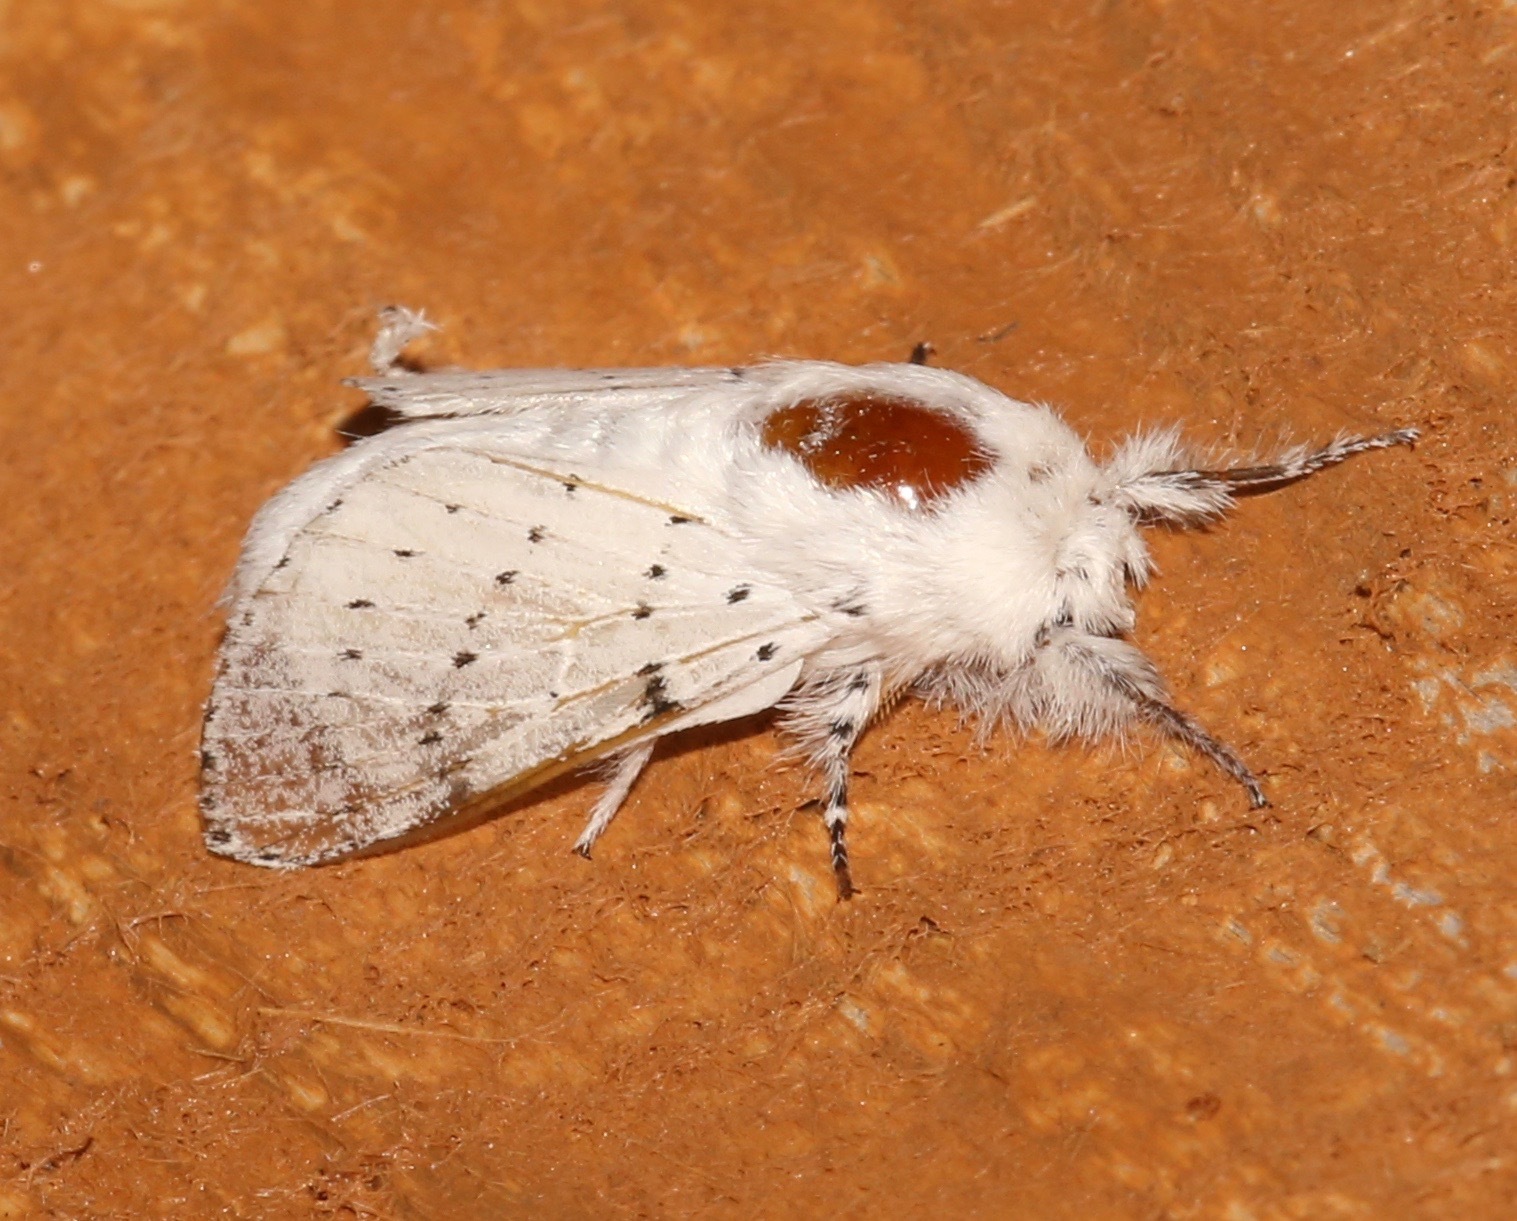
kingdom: Animalia
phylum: Arthropoda
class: Insecta
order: Lepidoptera
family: Lasiocampidae
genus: Artace
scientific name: Artace cribrarius
